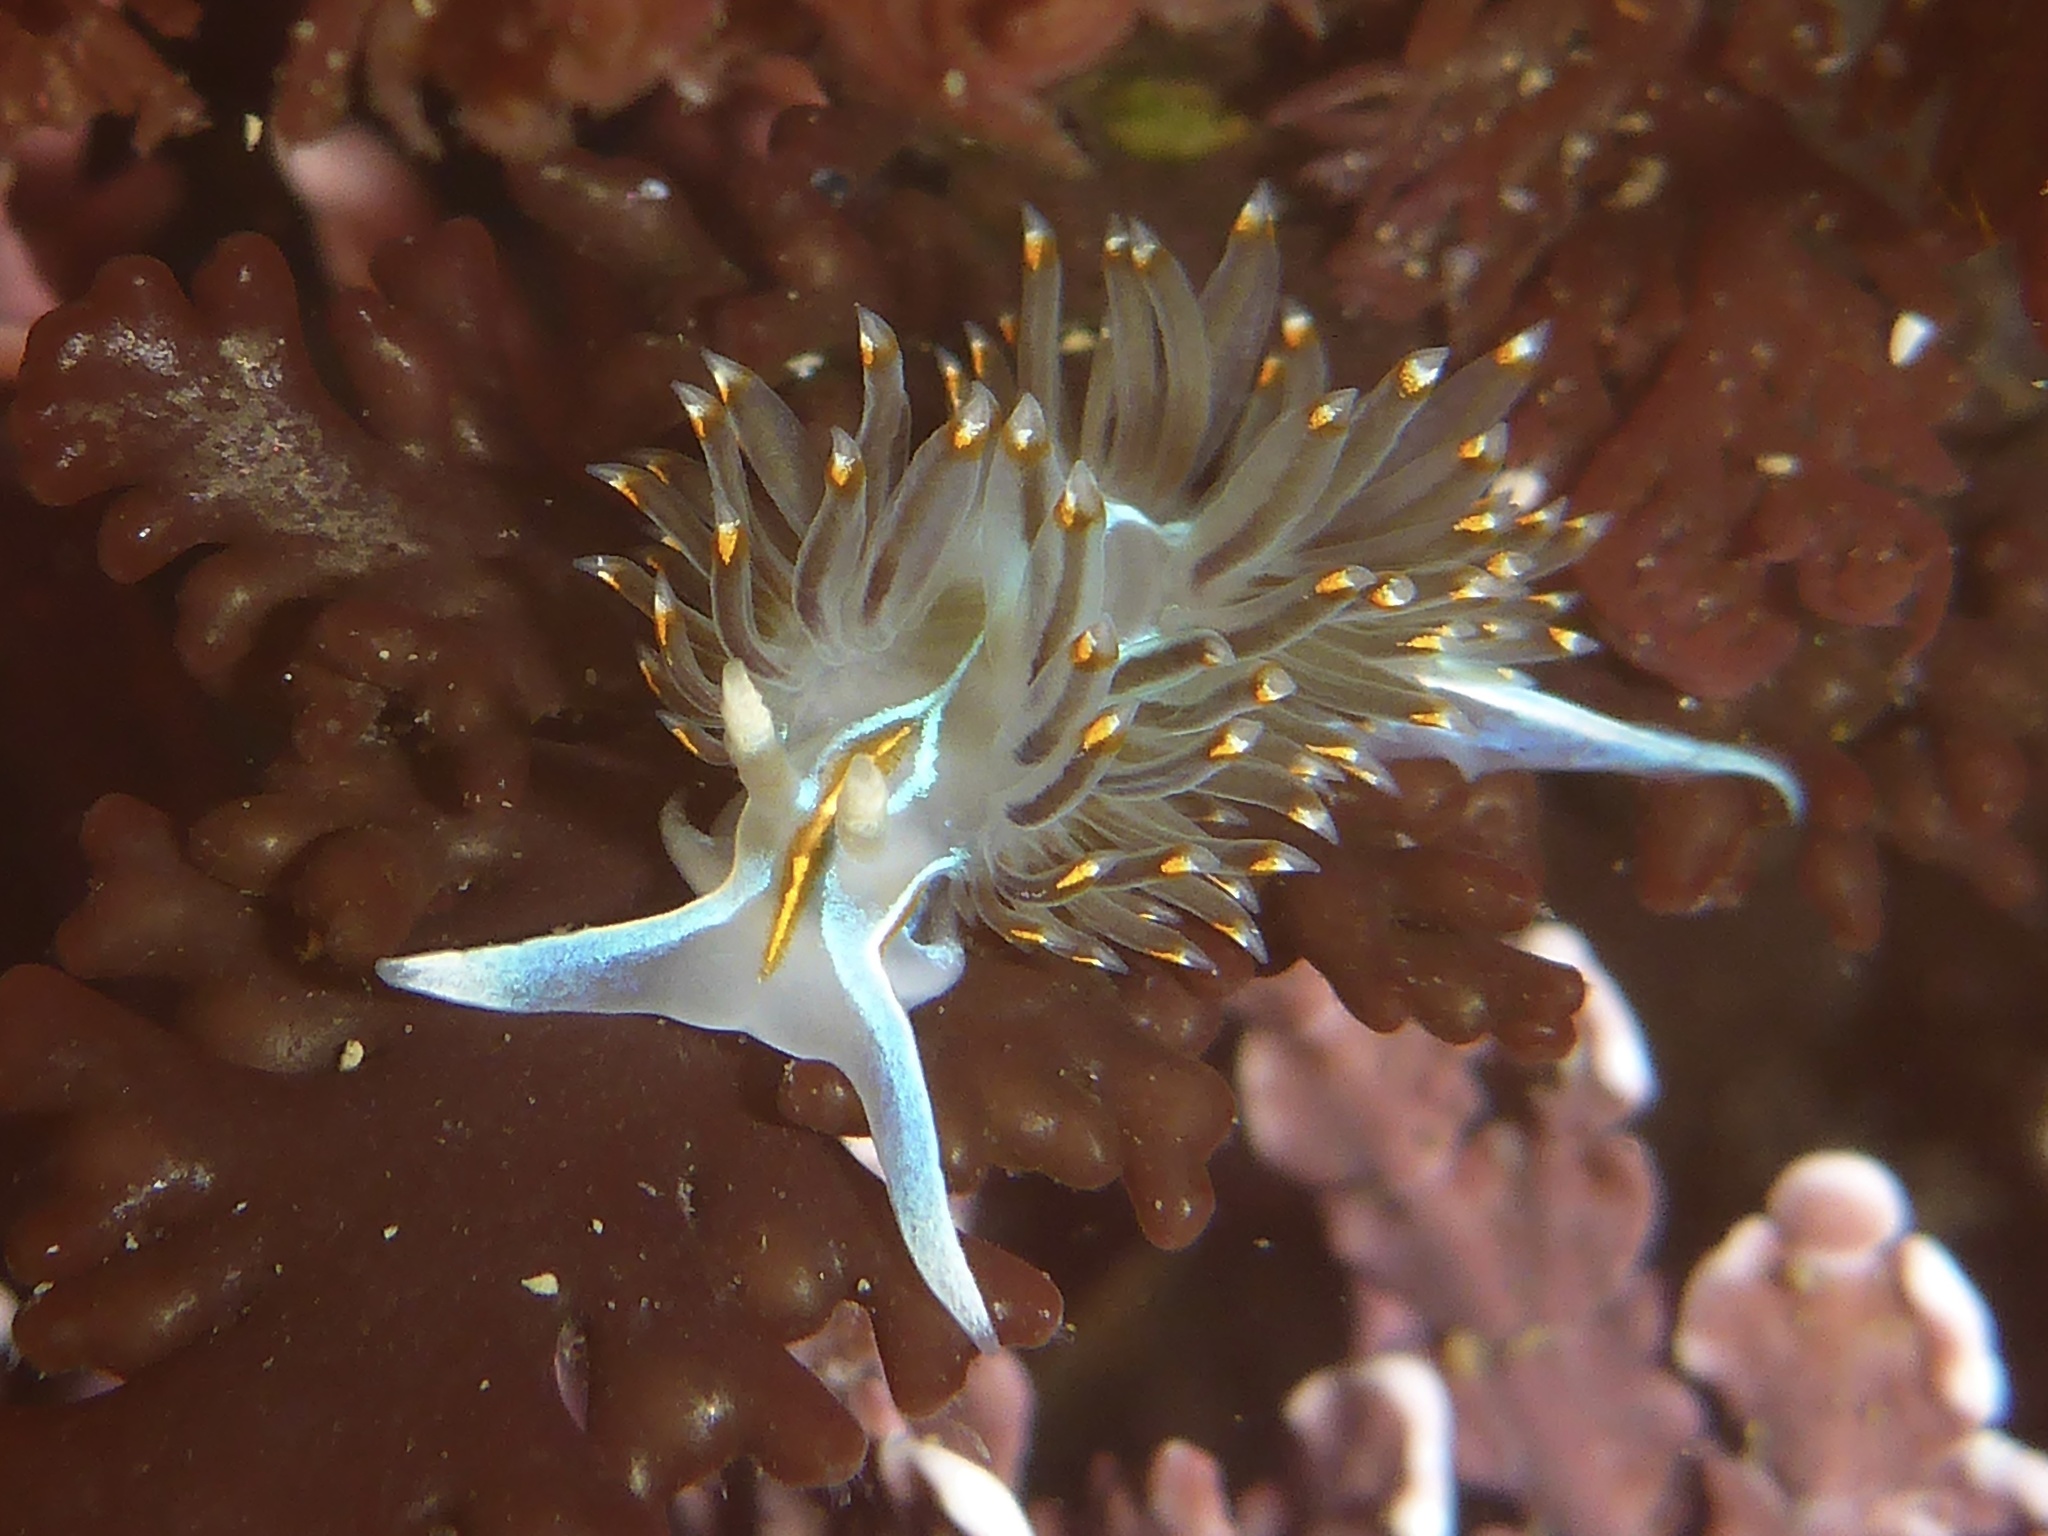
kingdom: Animalia
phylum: Mollusca
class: Gastropoda
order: Nudibranchia
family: Myrrhinidae
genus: Hermissenda
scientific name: Hermissenda opalescens
